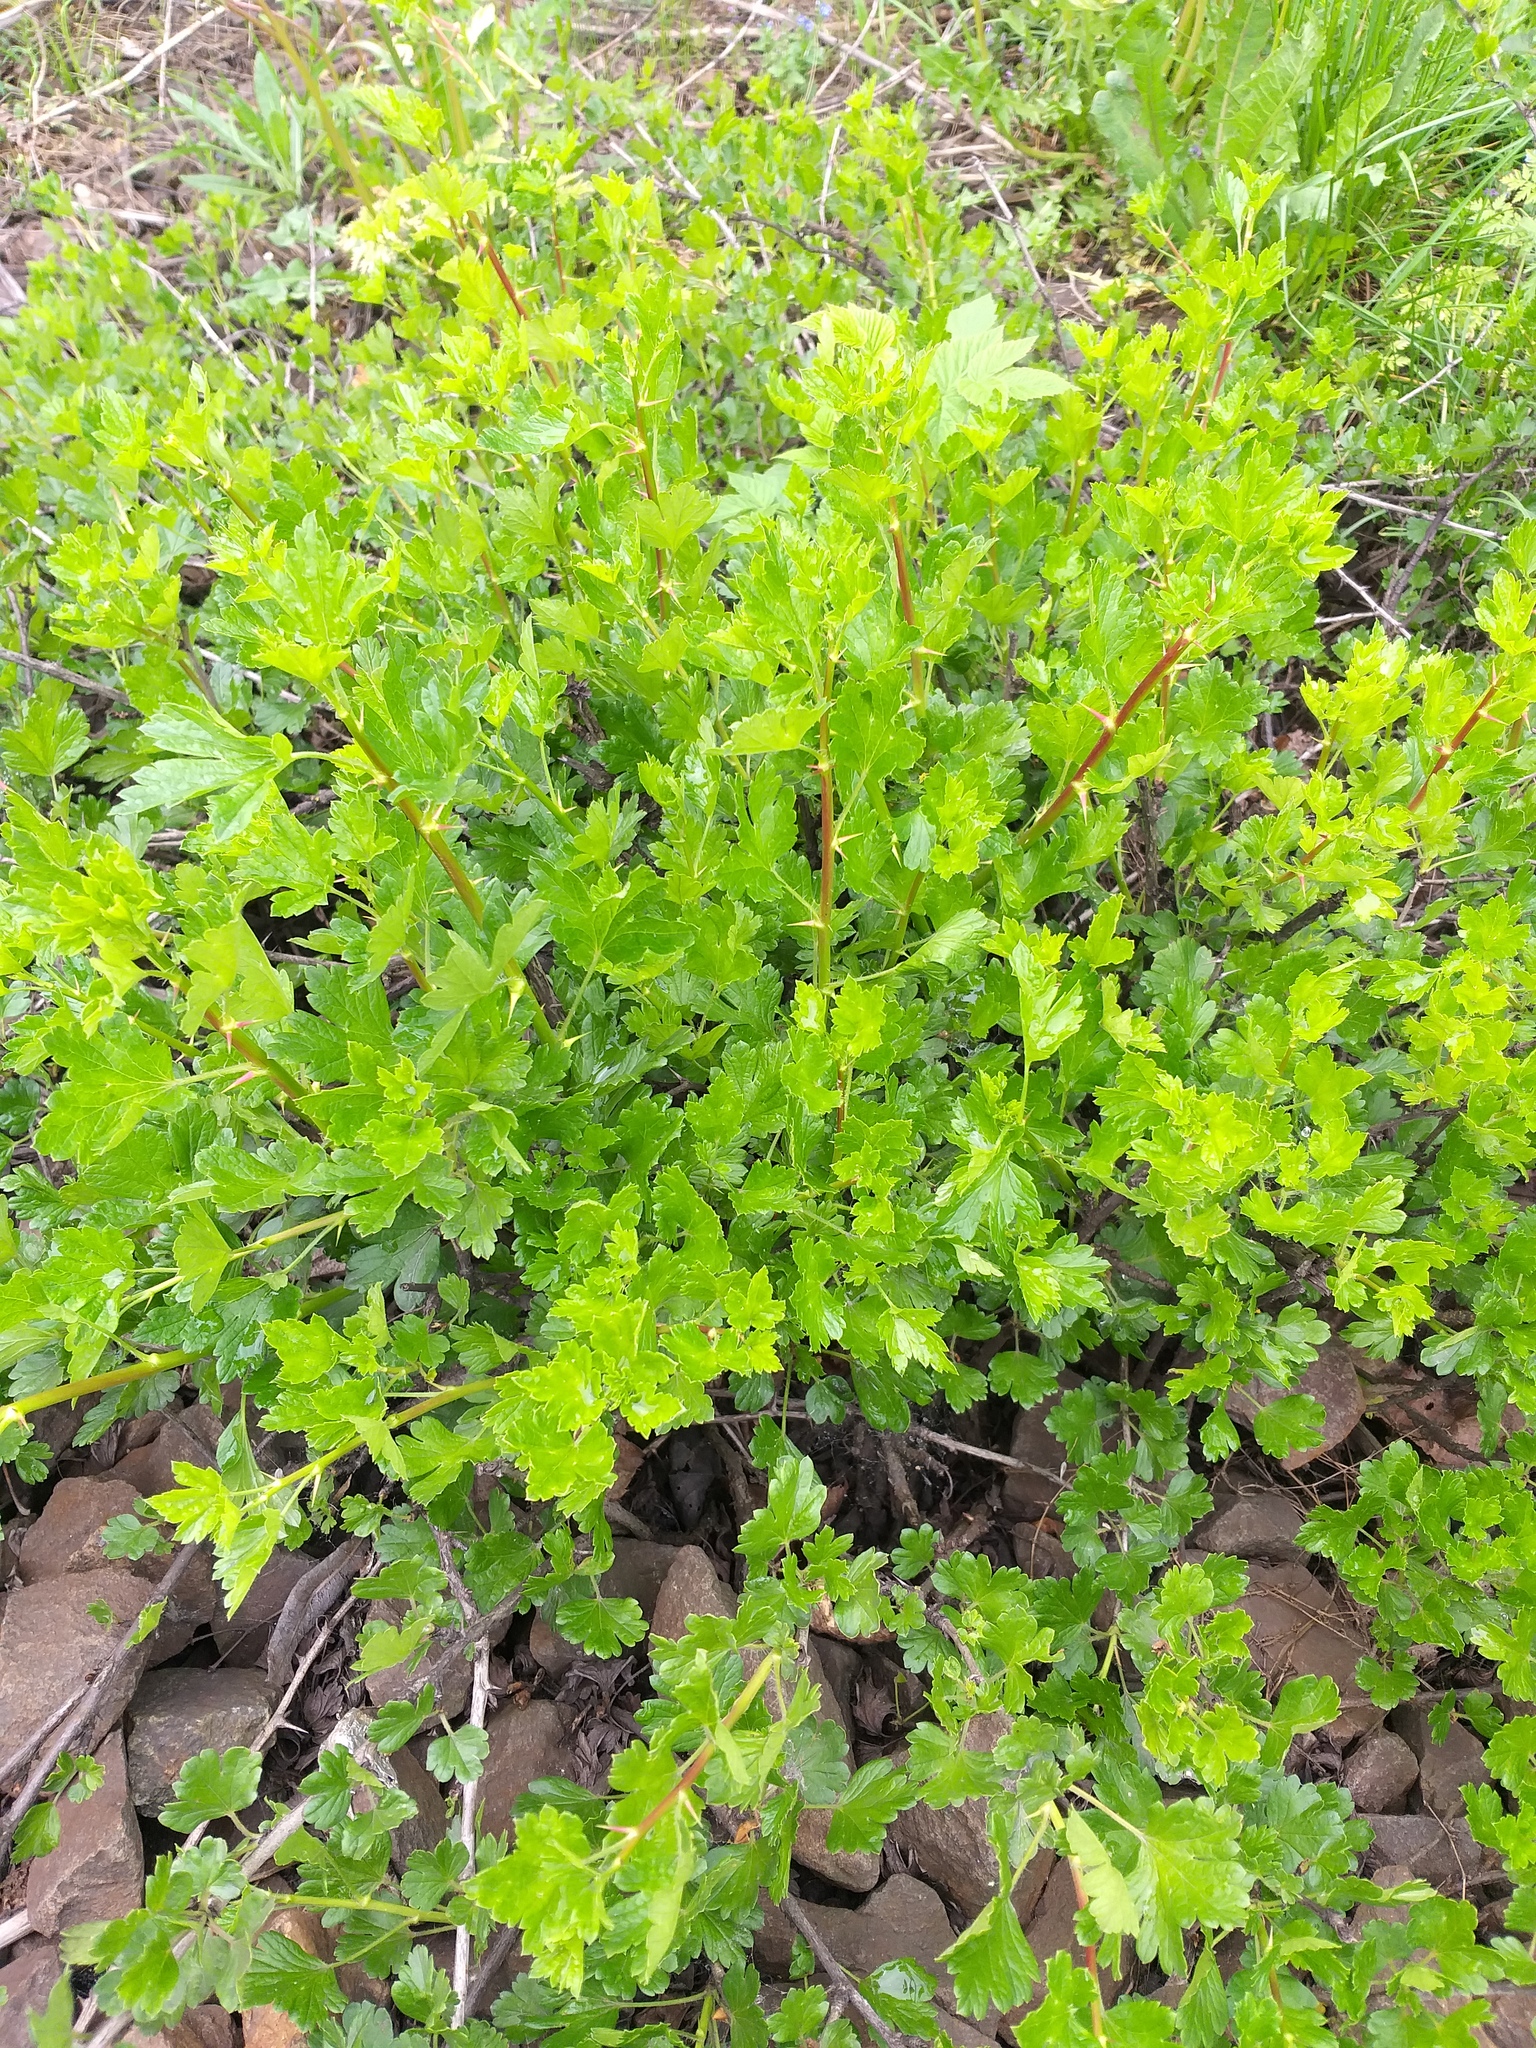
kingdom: Plantae
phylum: Tracheophyta
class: Magnoliopsida
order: Saxifragales
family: Grossulariaceae
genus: Ribes
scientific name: Ribes uva-crispa
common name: Gooseberry
